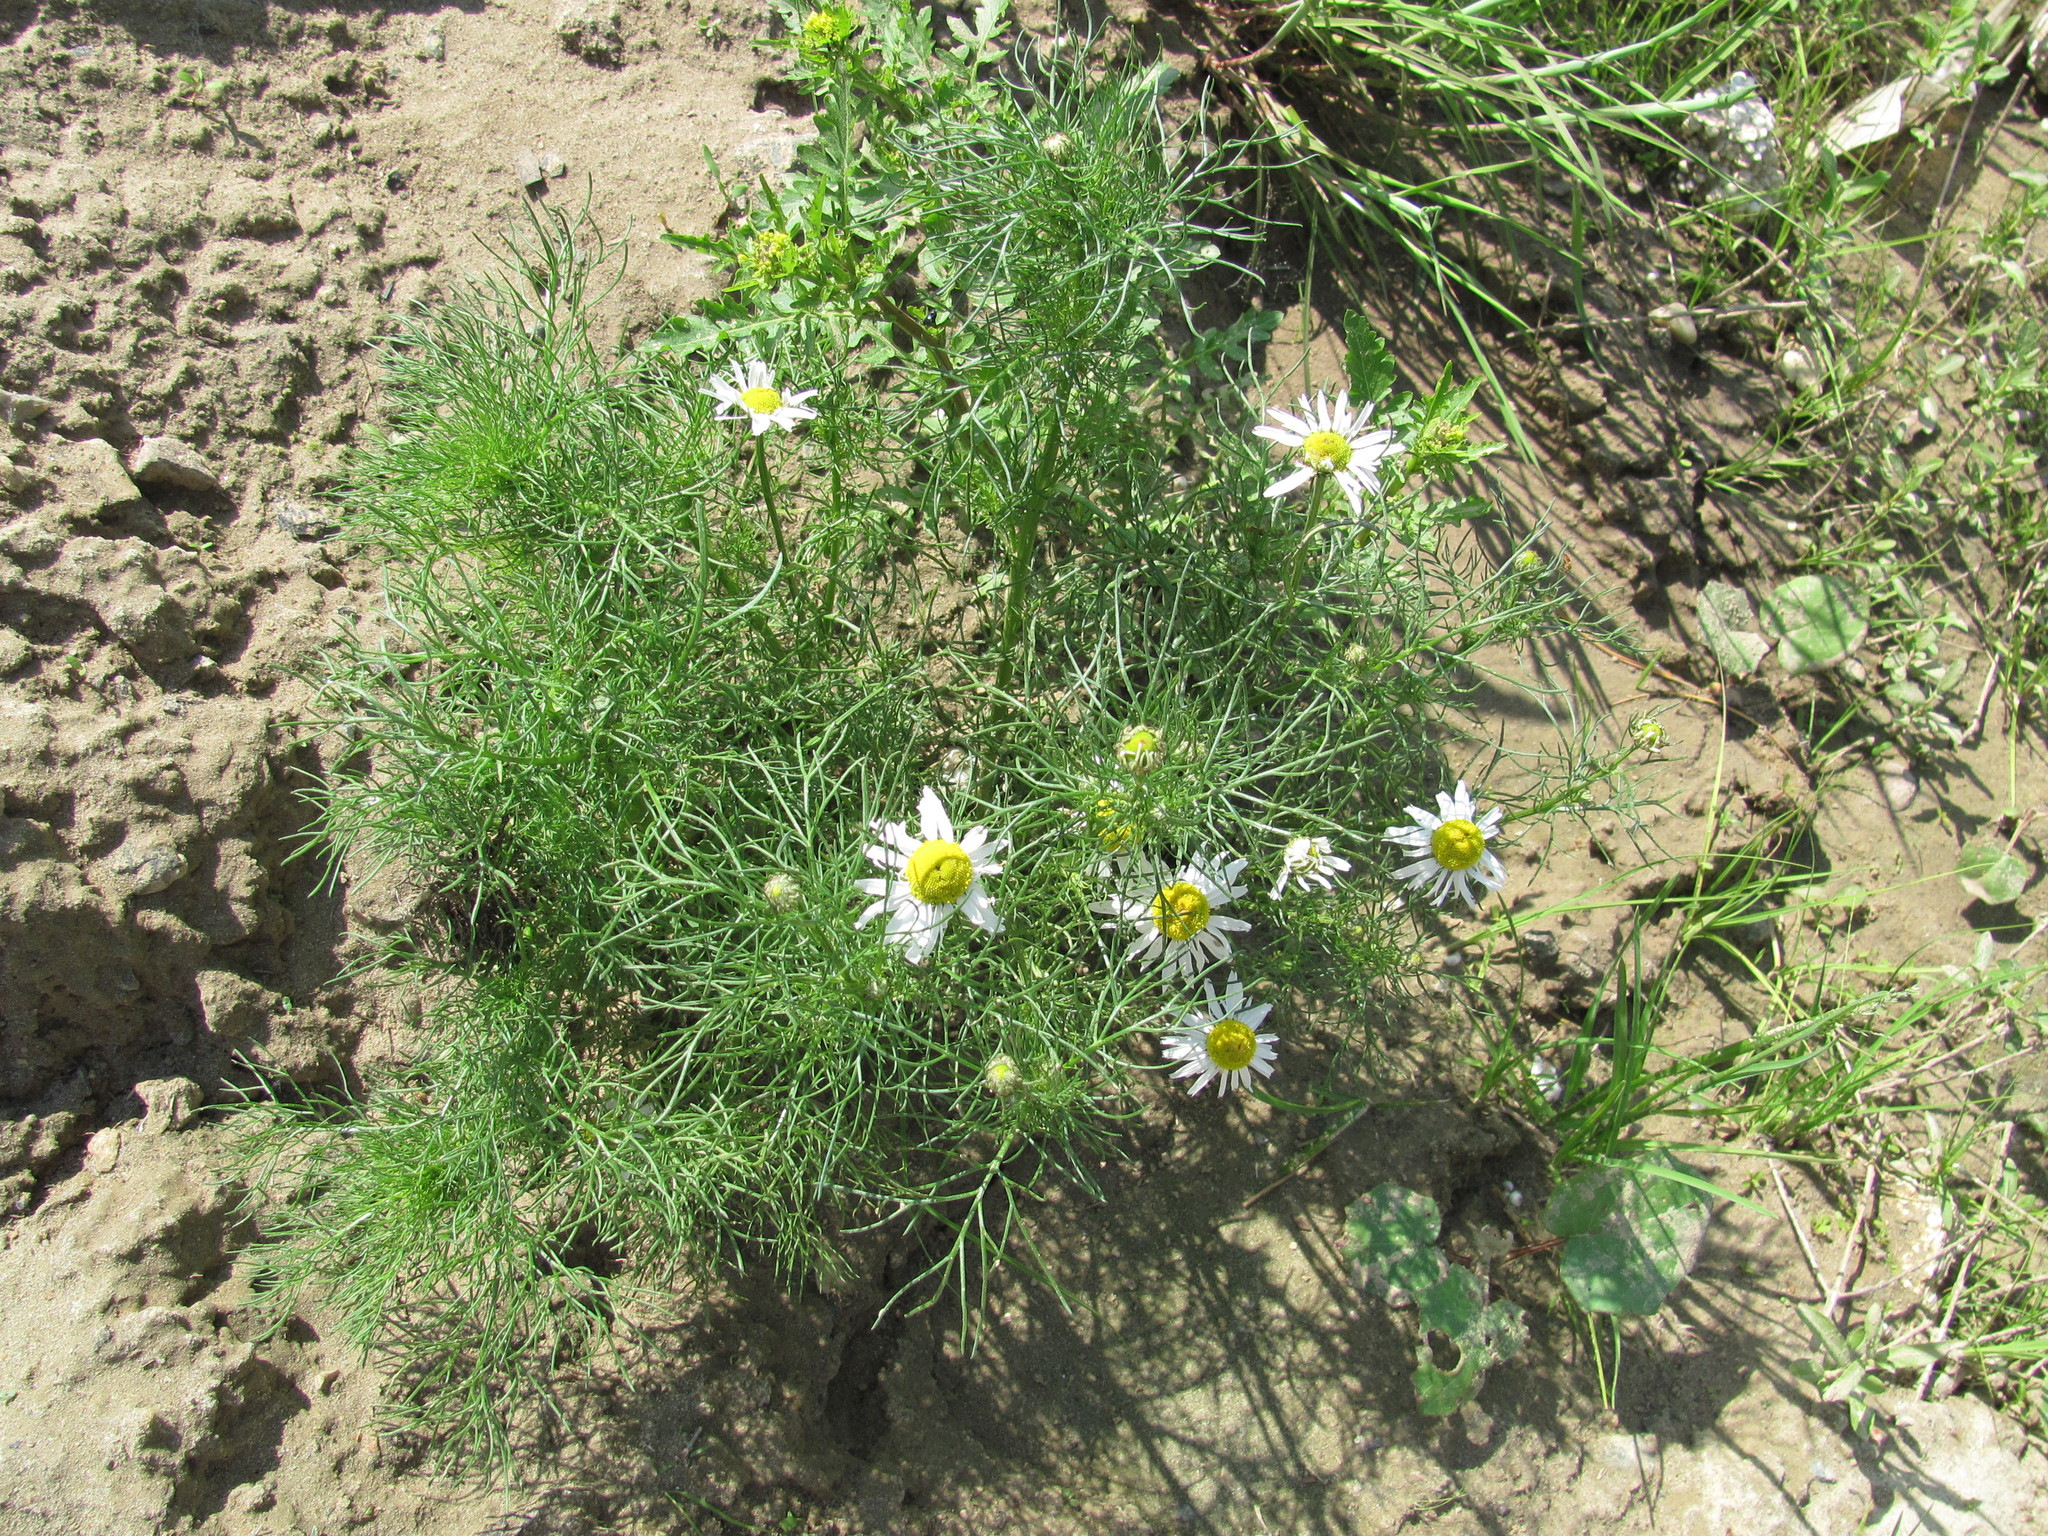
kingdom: Plantae
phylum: Tracheophyta
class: Magnoliopsida
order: Asterales
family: Asteraceae
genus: Tripleurospermum
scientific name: Tripleurospermum inodorum
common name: Scentless mayweed
